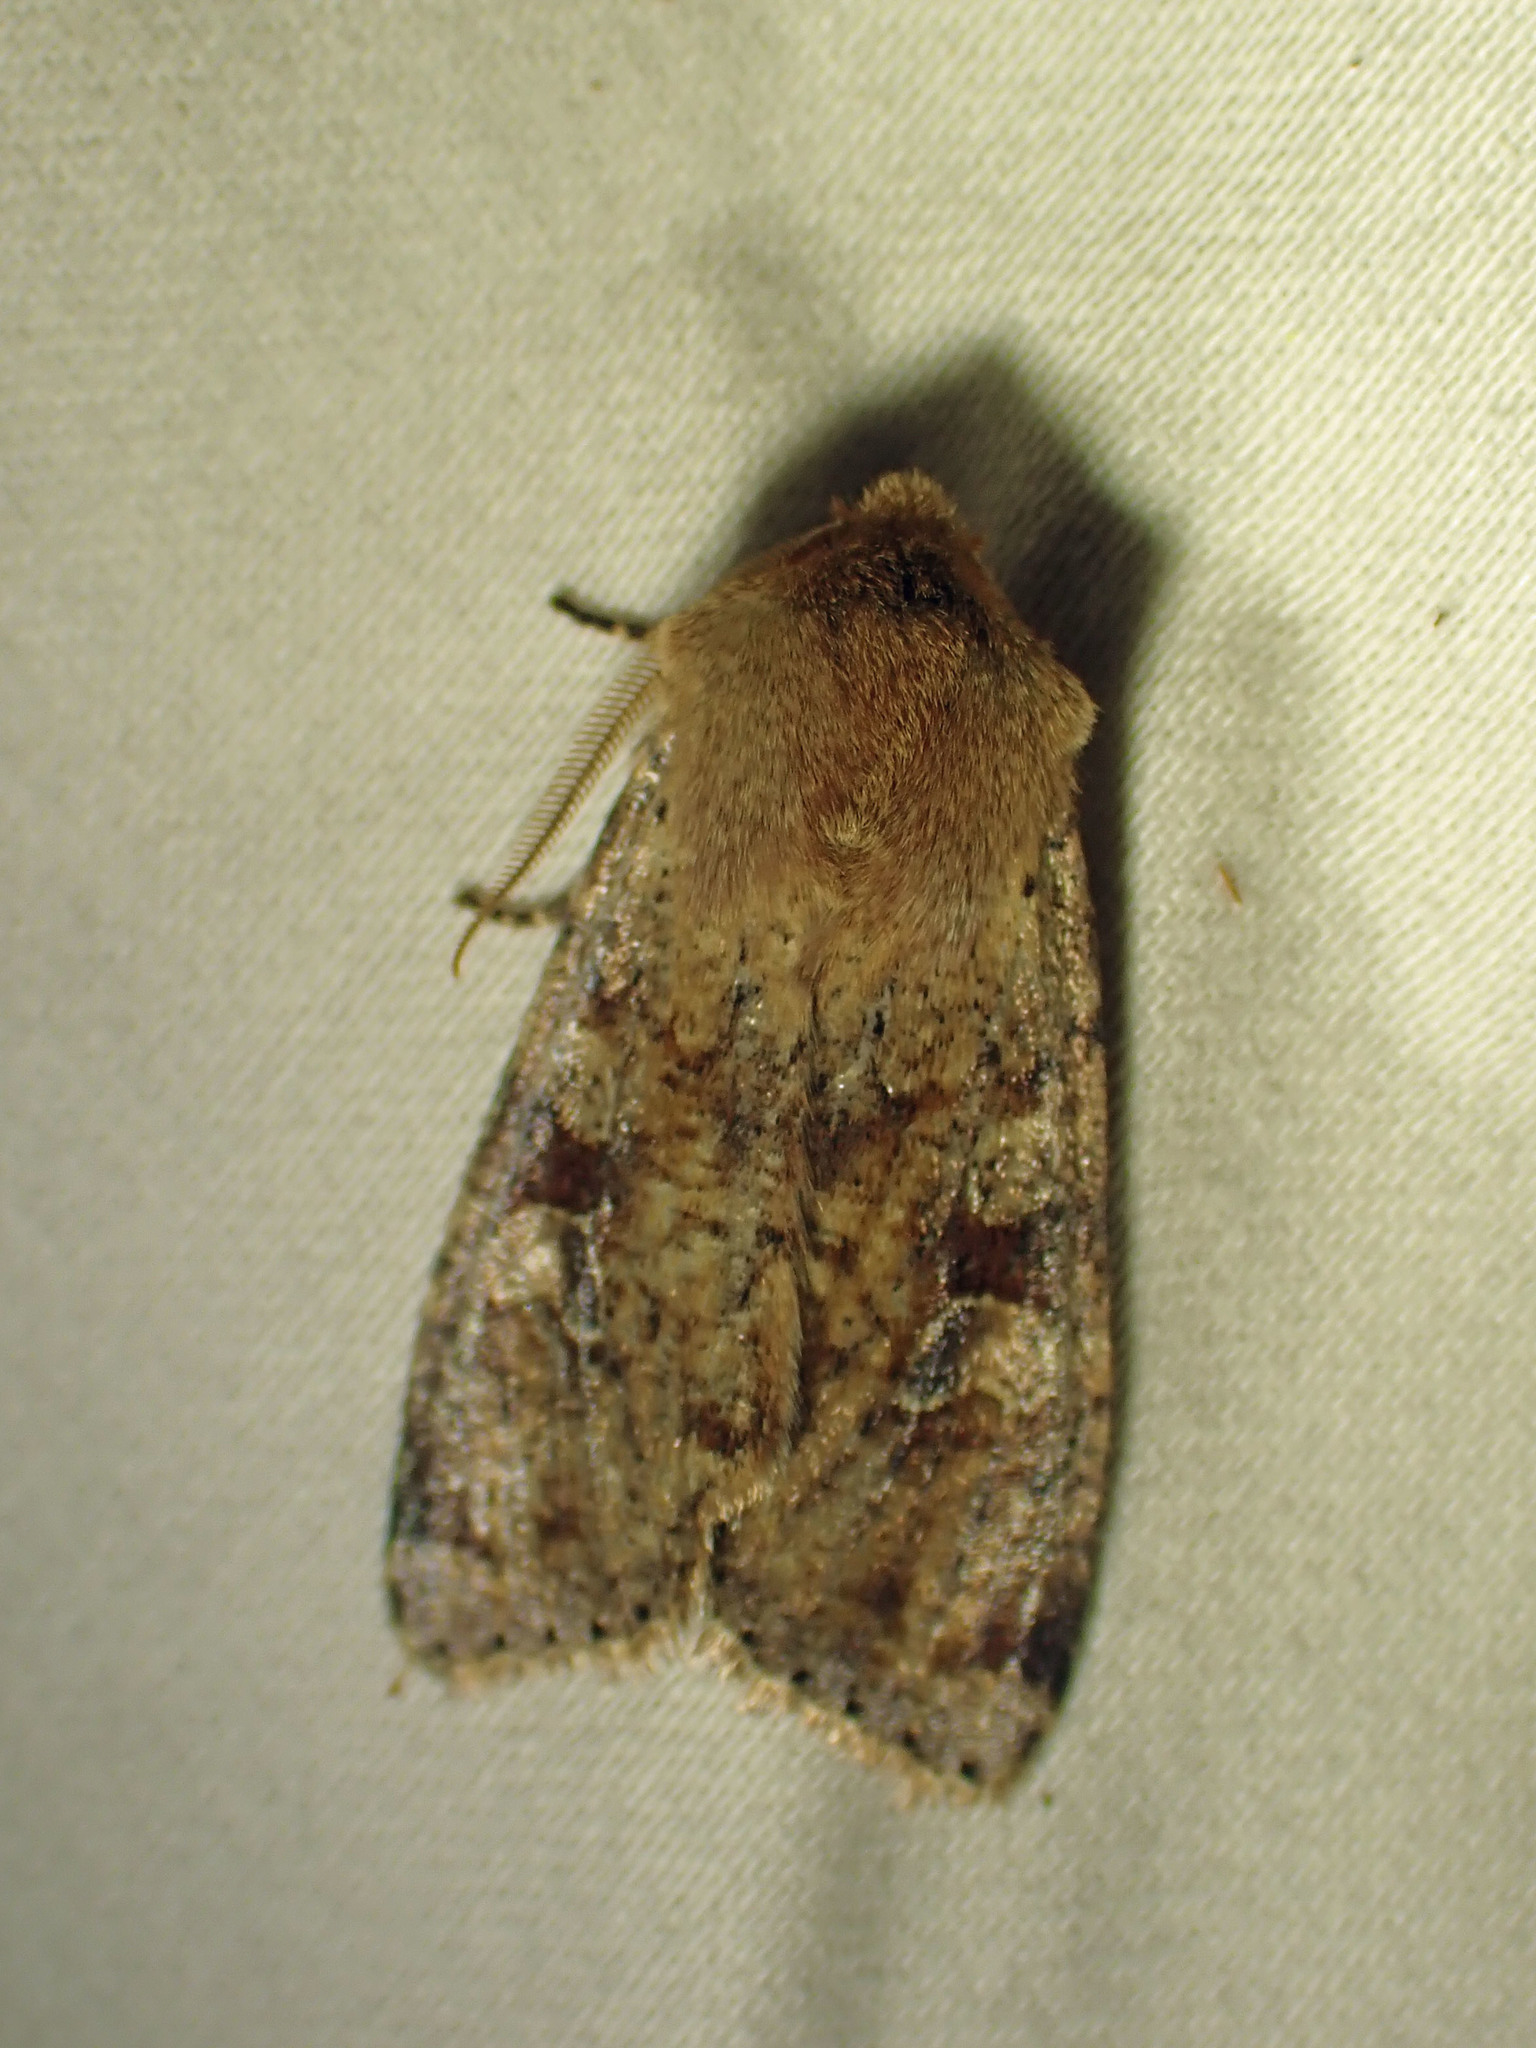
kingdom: Animalia
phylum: Arthropoda
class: Insecta
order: Lepidoptera
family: Noctuidae
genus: Orthosia
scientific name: Orthosia rubescens
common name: Ruby quaker
